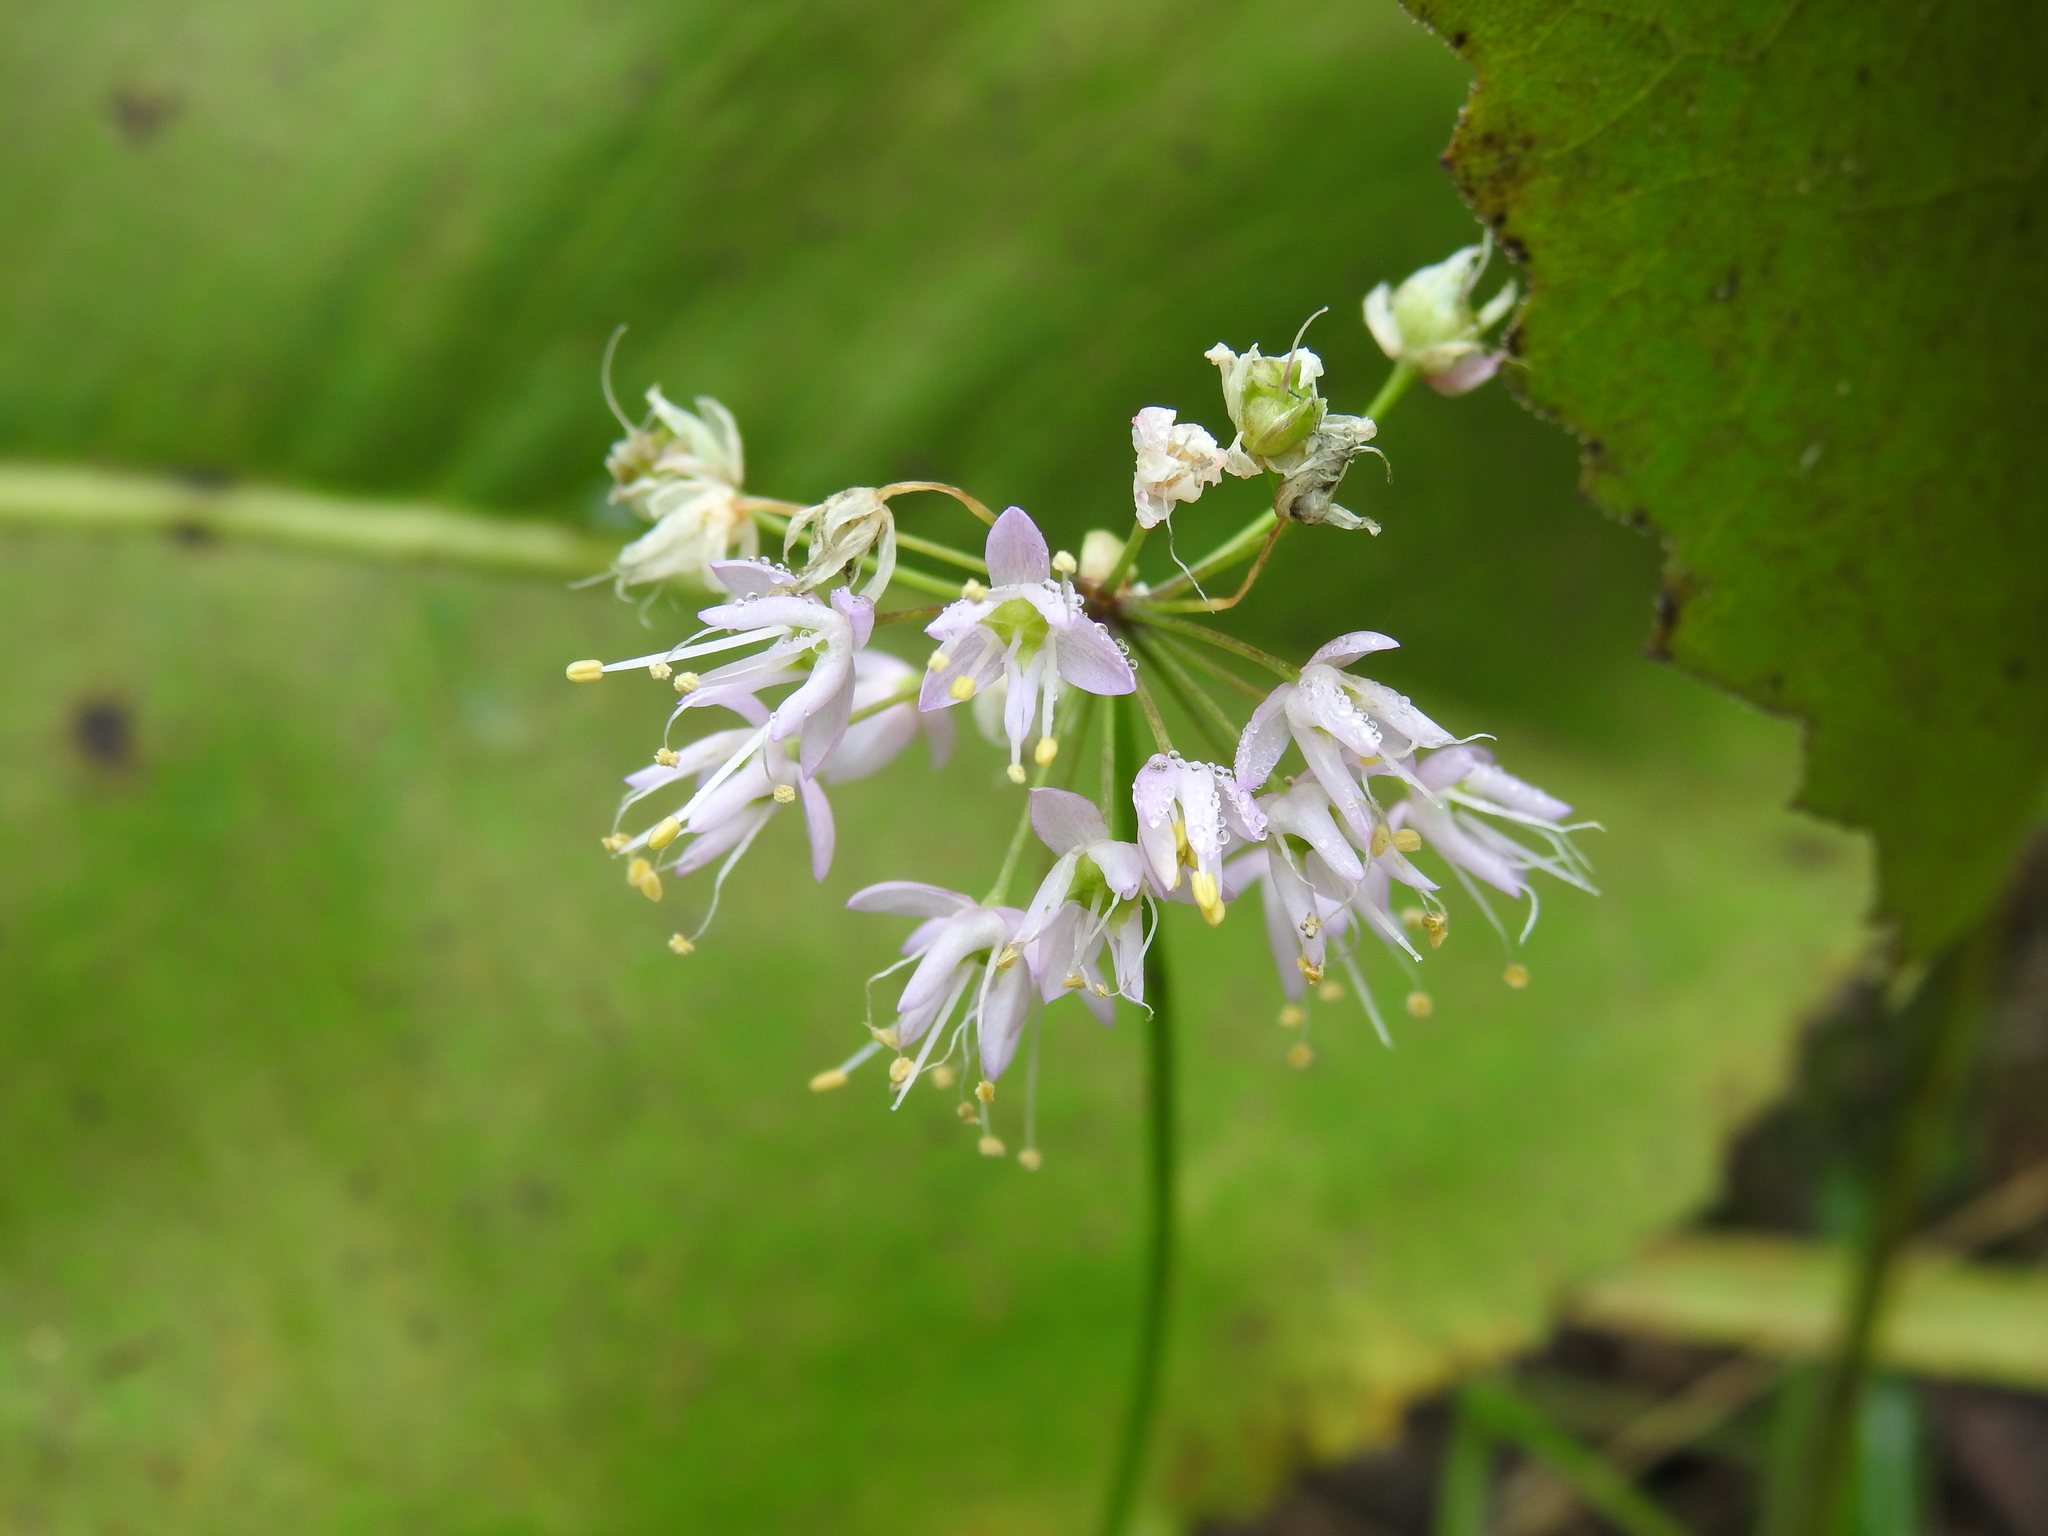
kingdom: Plantae
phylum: Tracheophyta
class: Liliopsida
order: Asparagales
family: Amaryllidaceae
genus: Allium
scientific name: Allium cernuum
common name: Nodding onion
